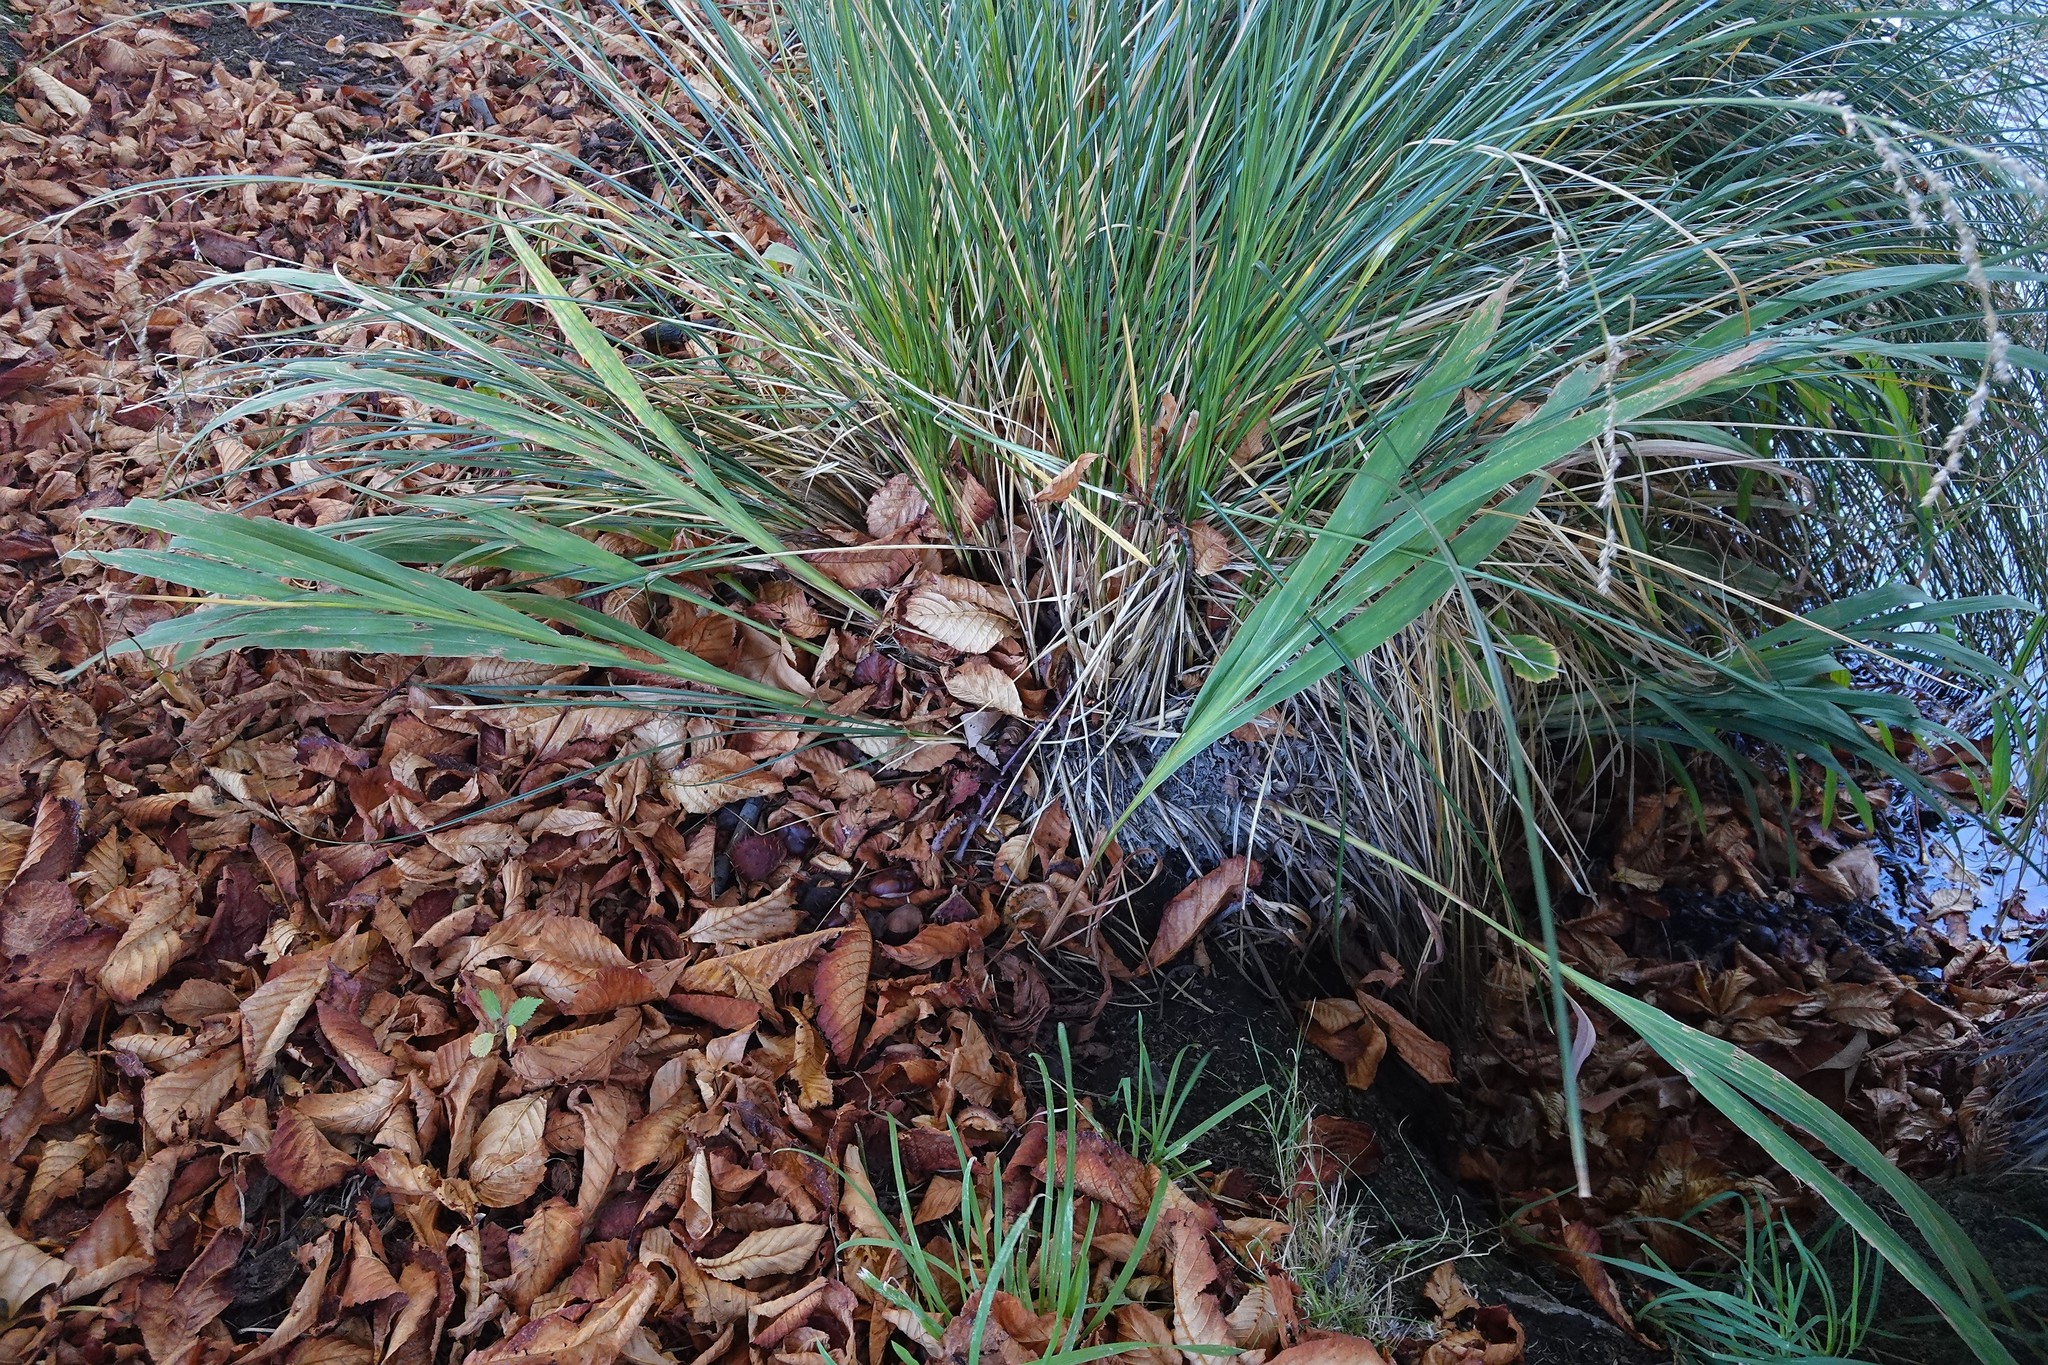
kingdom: Plantae
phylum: Tracheophyta
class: Liliopsida
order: Asparagales
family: Iridaceae
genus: Crocosmia
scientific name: Crocosmia crocosmiiflora
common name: Montbretia
